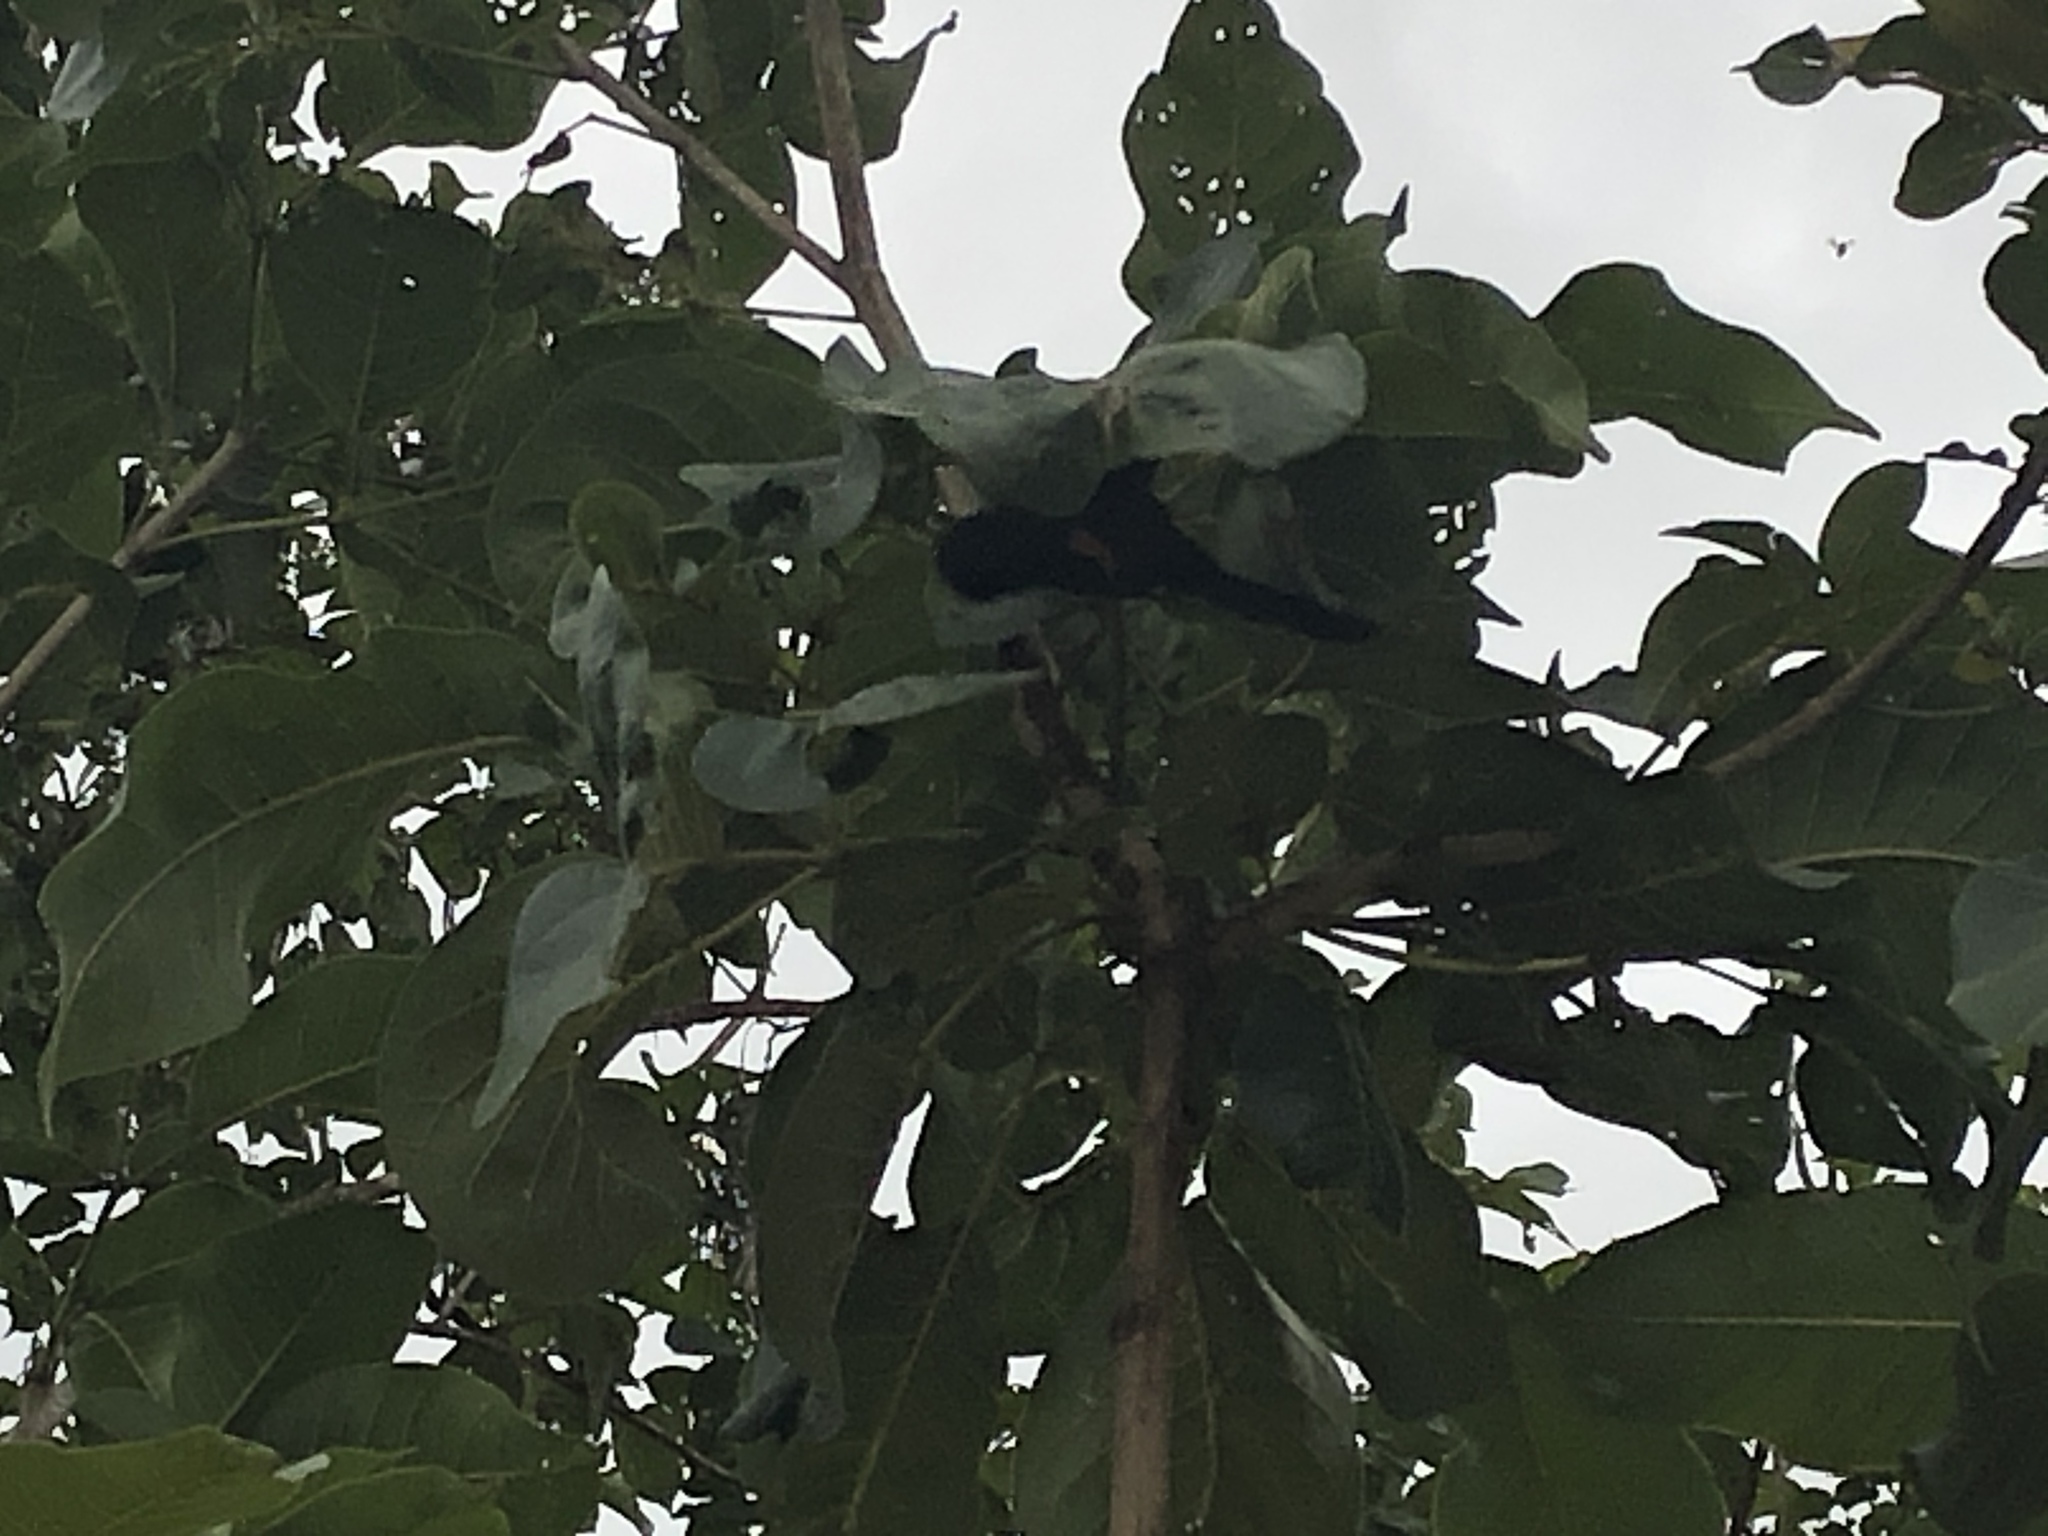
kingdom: Animalia
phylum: Chordata
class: Aves
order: Passeriformes
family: Icteridae
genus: Icterus
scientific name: Icterus cayanensis
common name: Epaulet oriole
